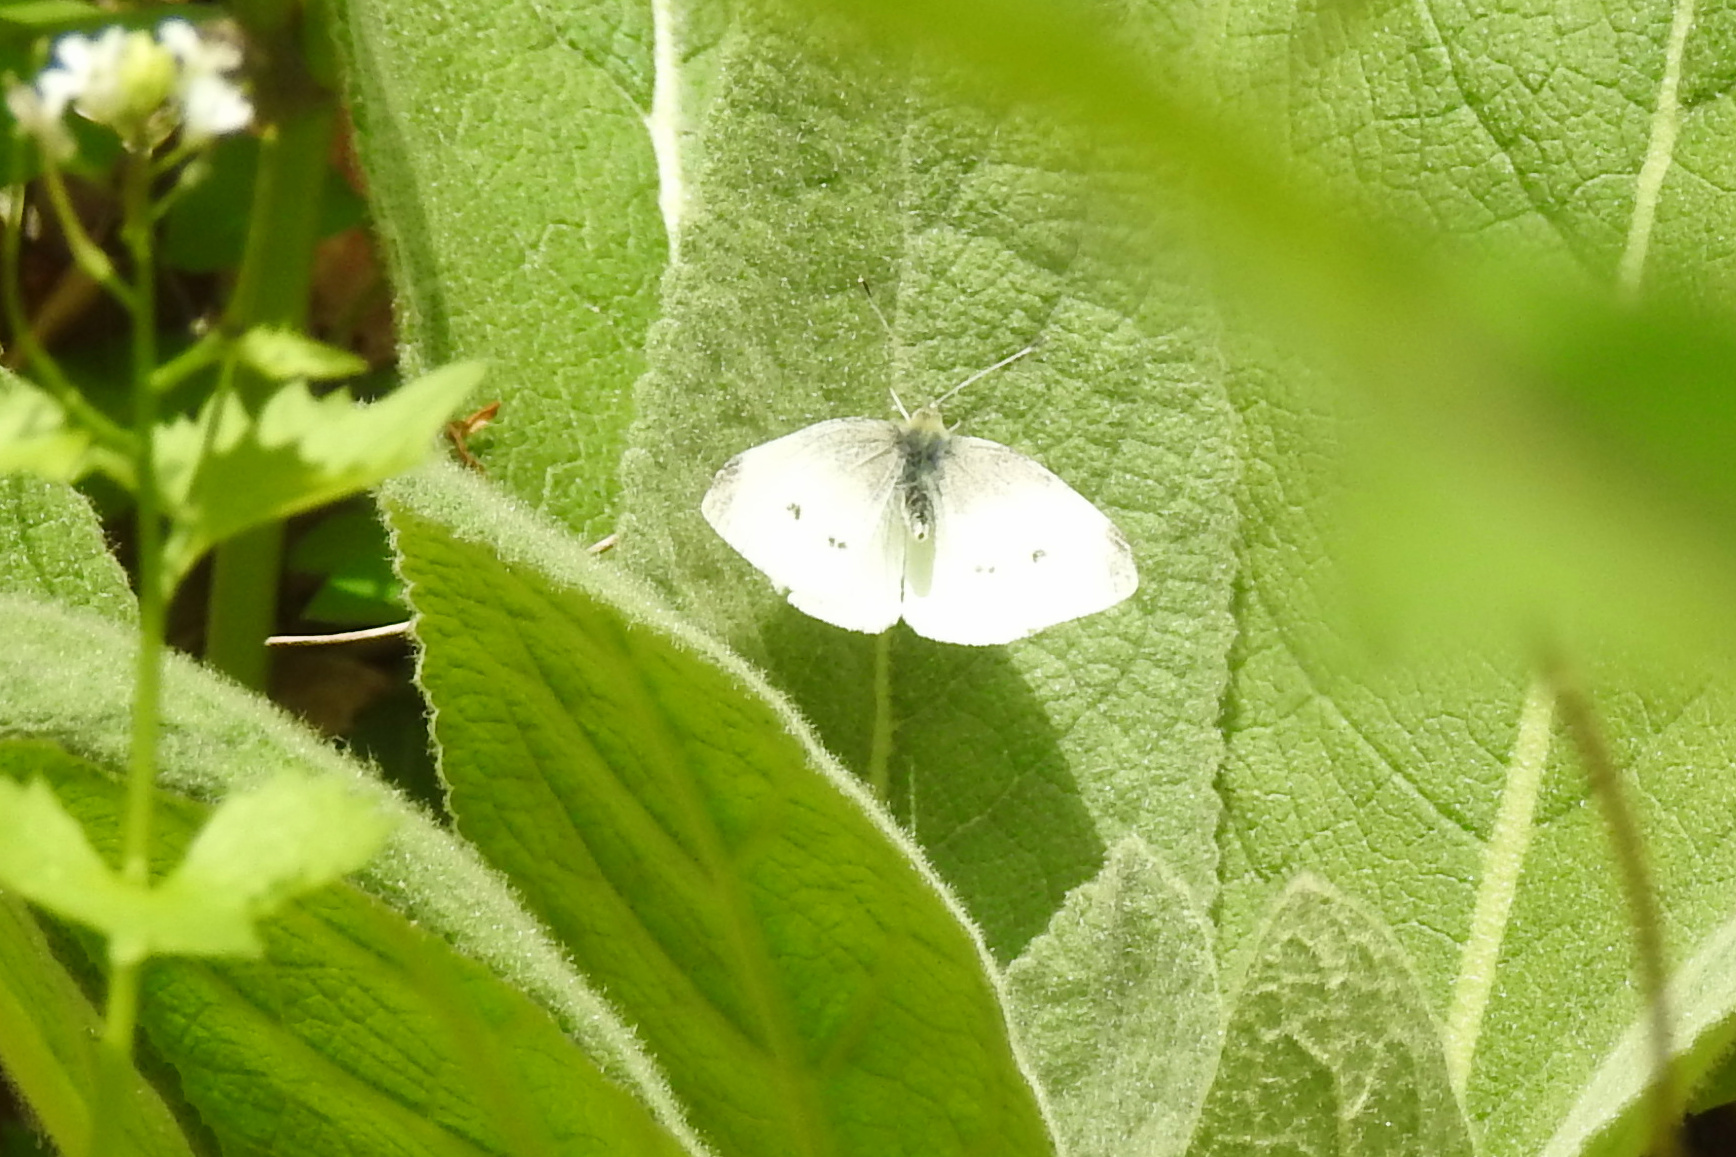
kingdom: Animalia
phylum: Arthropoda
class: Insecta
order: Lepidoptera
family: Pieridae
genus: Pieris
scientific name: Pieris rapae
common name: Small white
